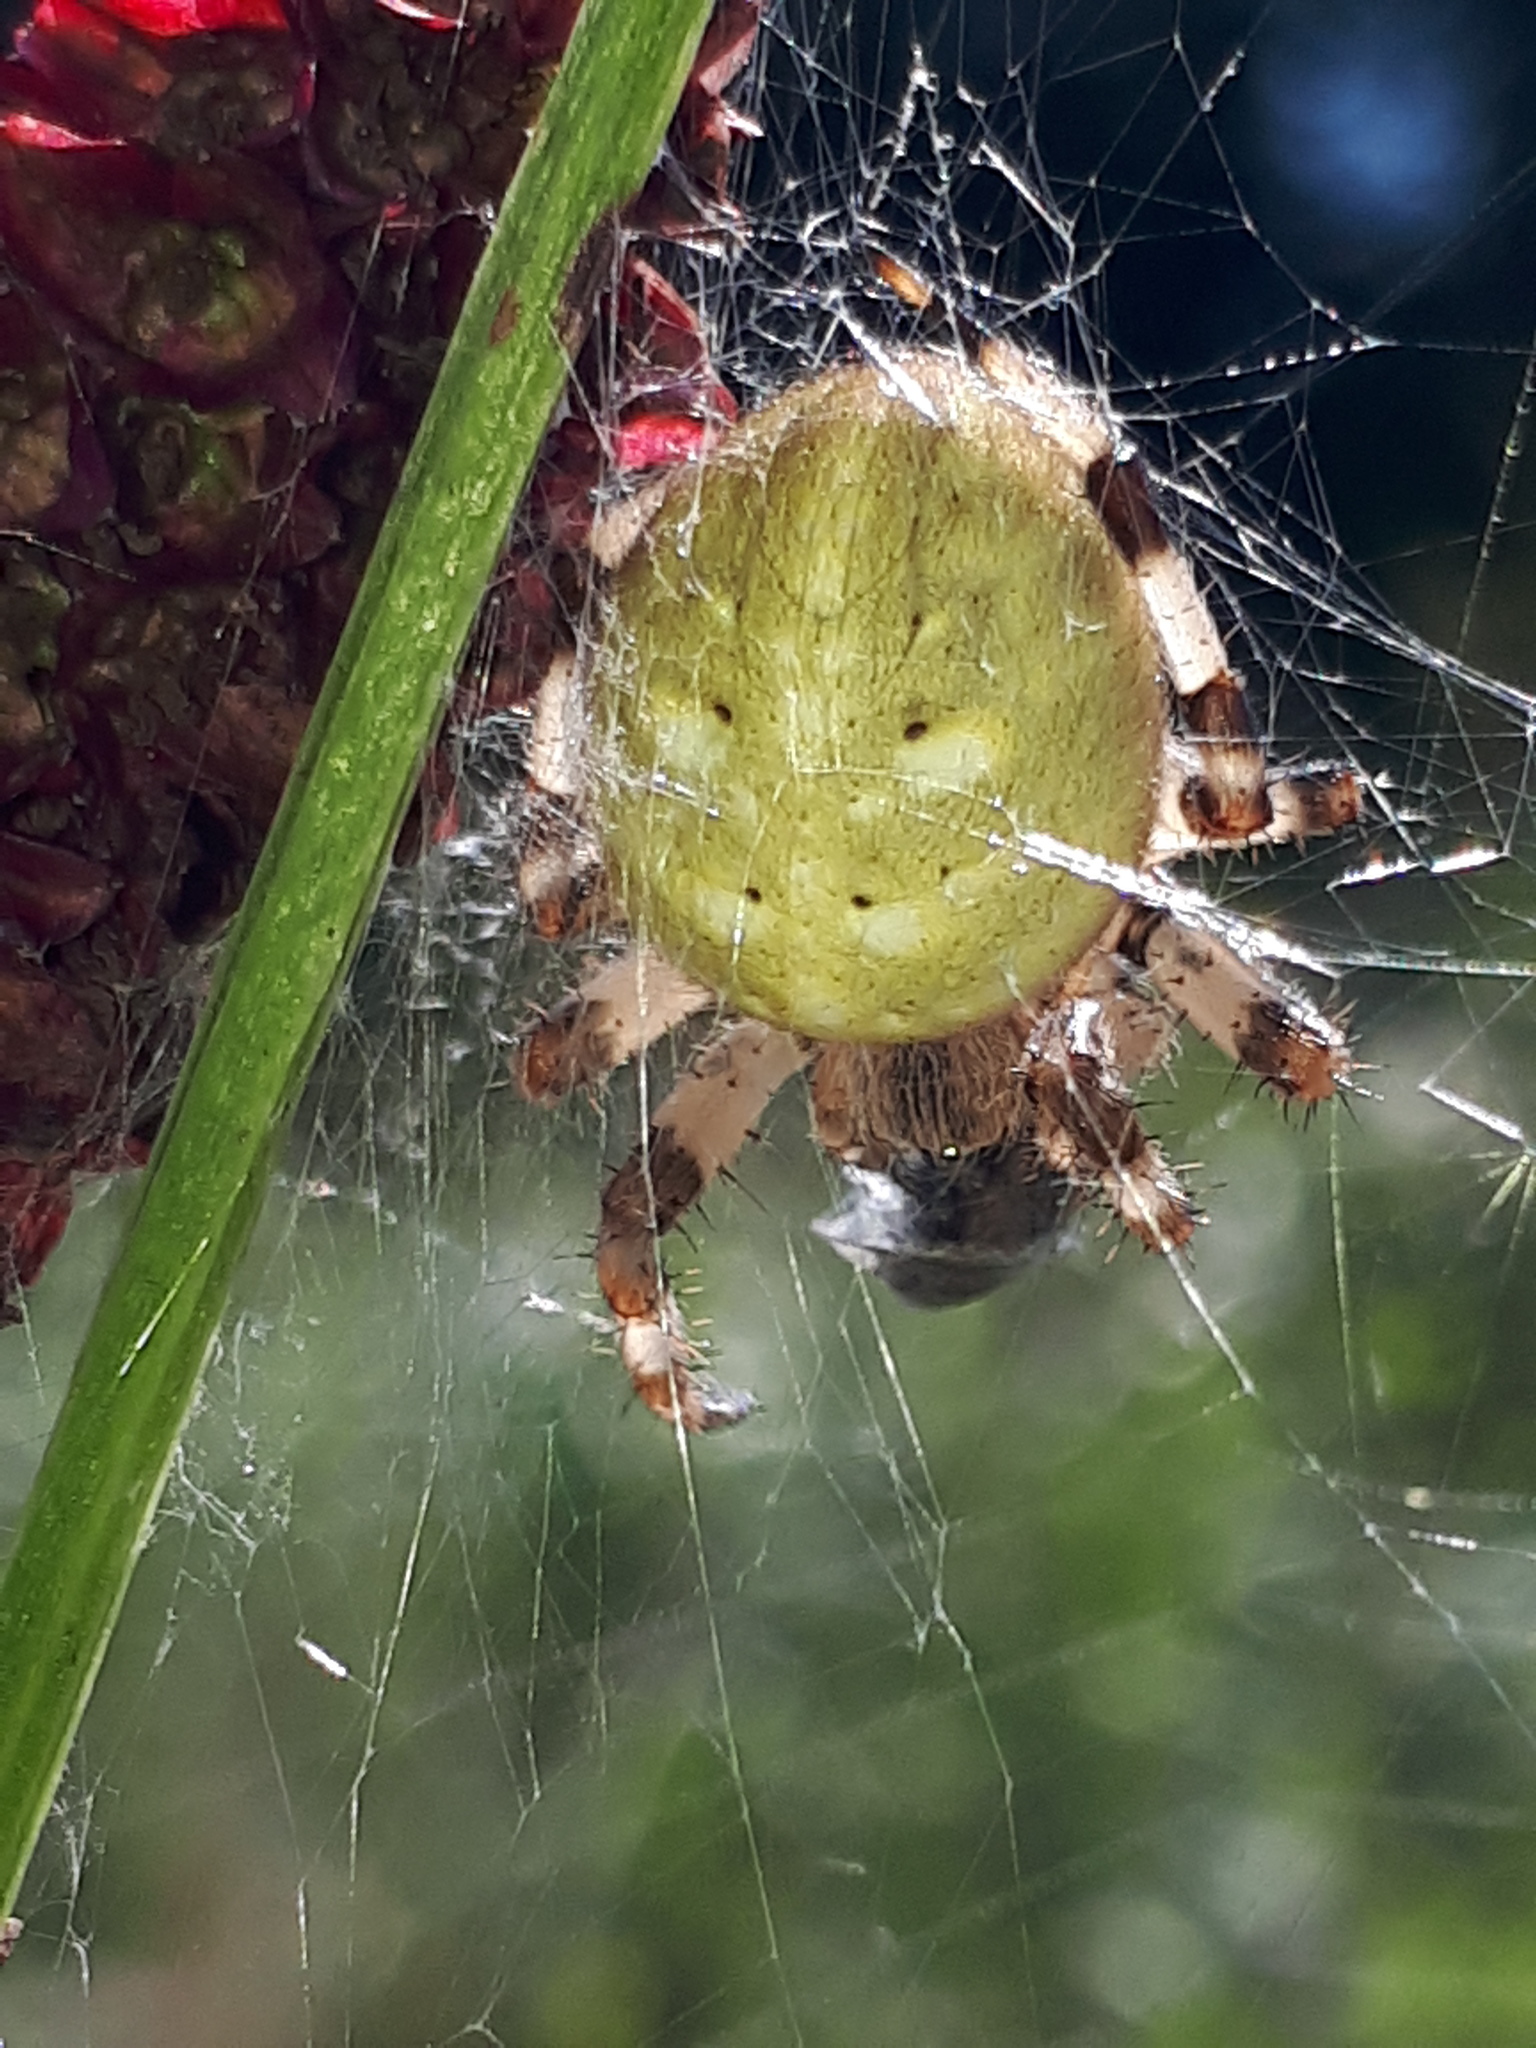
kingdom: Animalia
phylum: Arthropoda
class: Arachnida
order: Araneae
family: Araneidae
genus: Araneus
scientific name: Araneus quadratus
